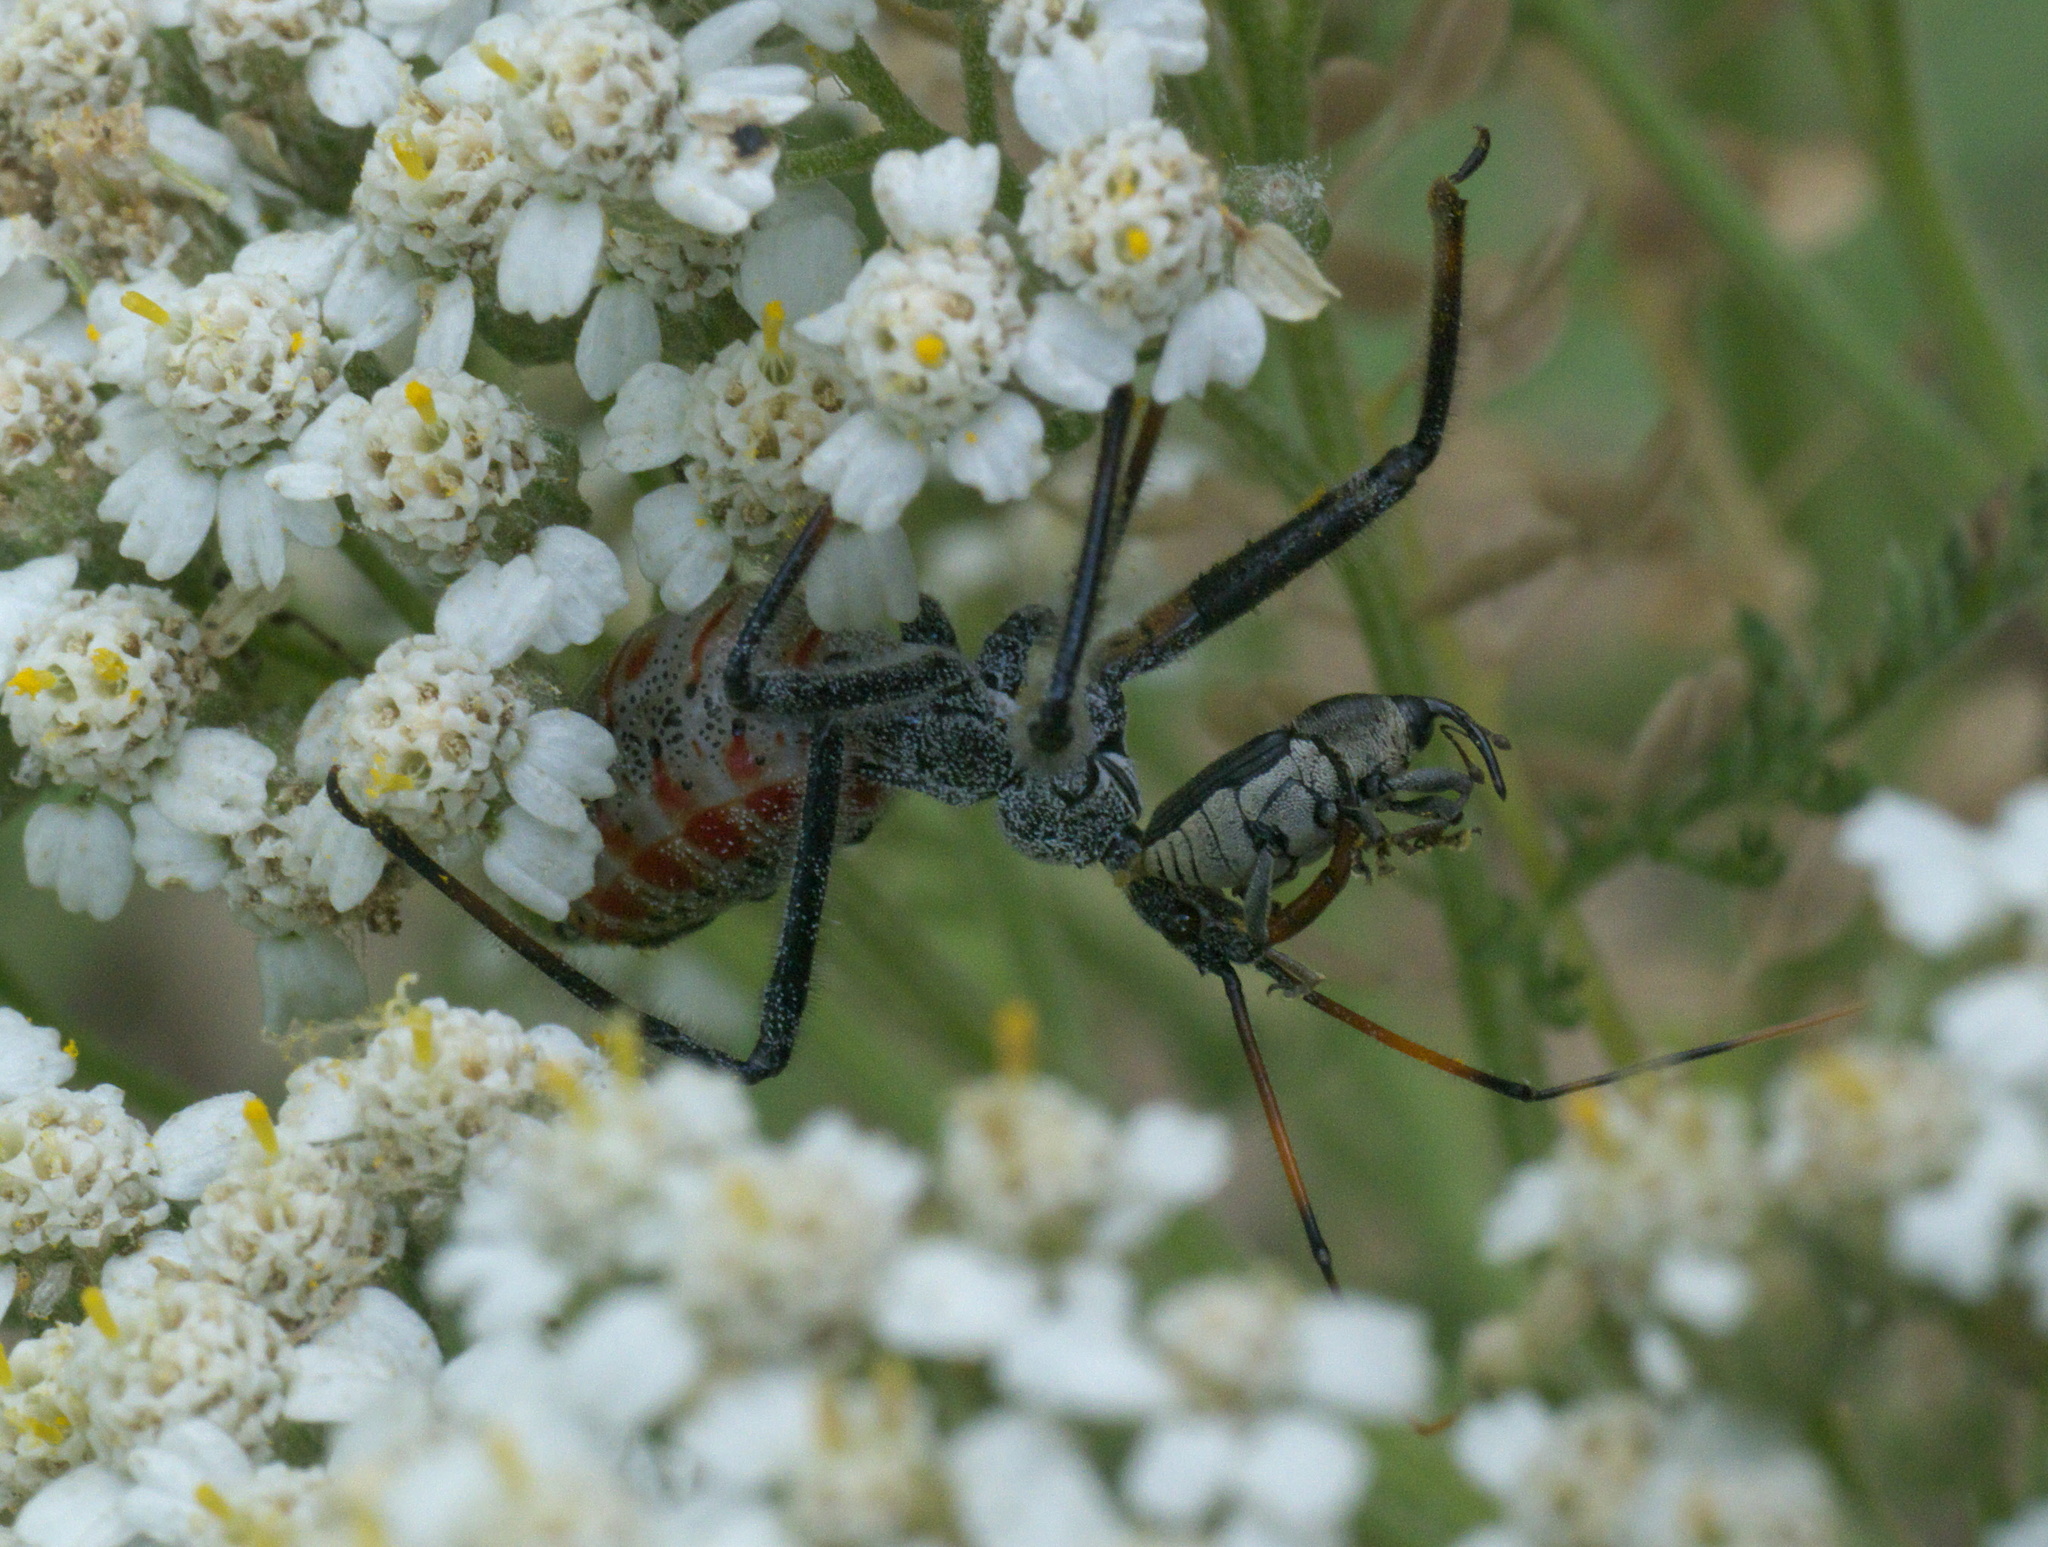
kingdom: Animalia
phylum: Arthropoda
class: Insecta
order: Hemiptera
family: Reduviidae
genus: Arilus
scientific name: Arilus cristatus
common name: North american wheel bug
